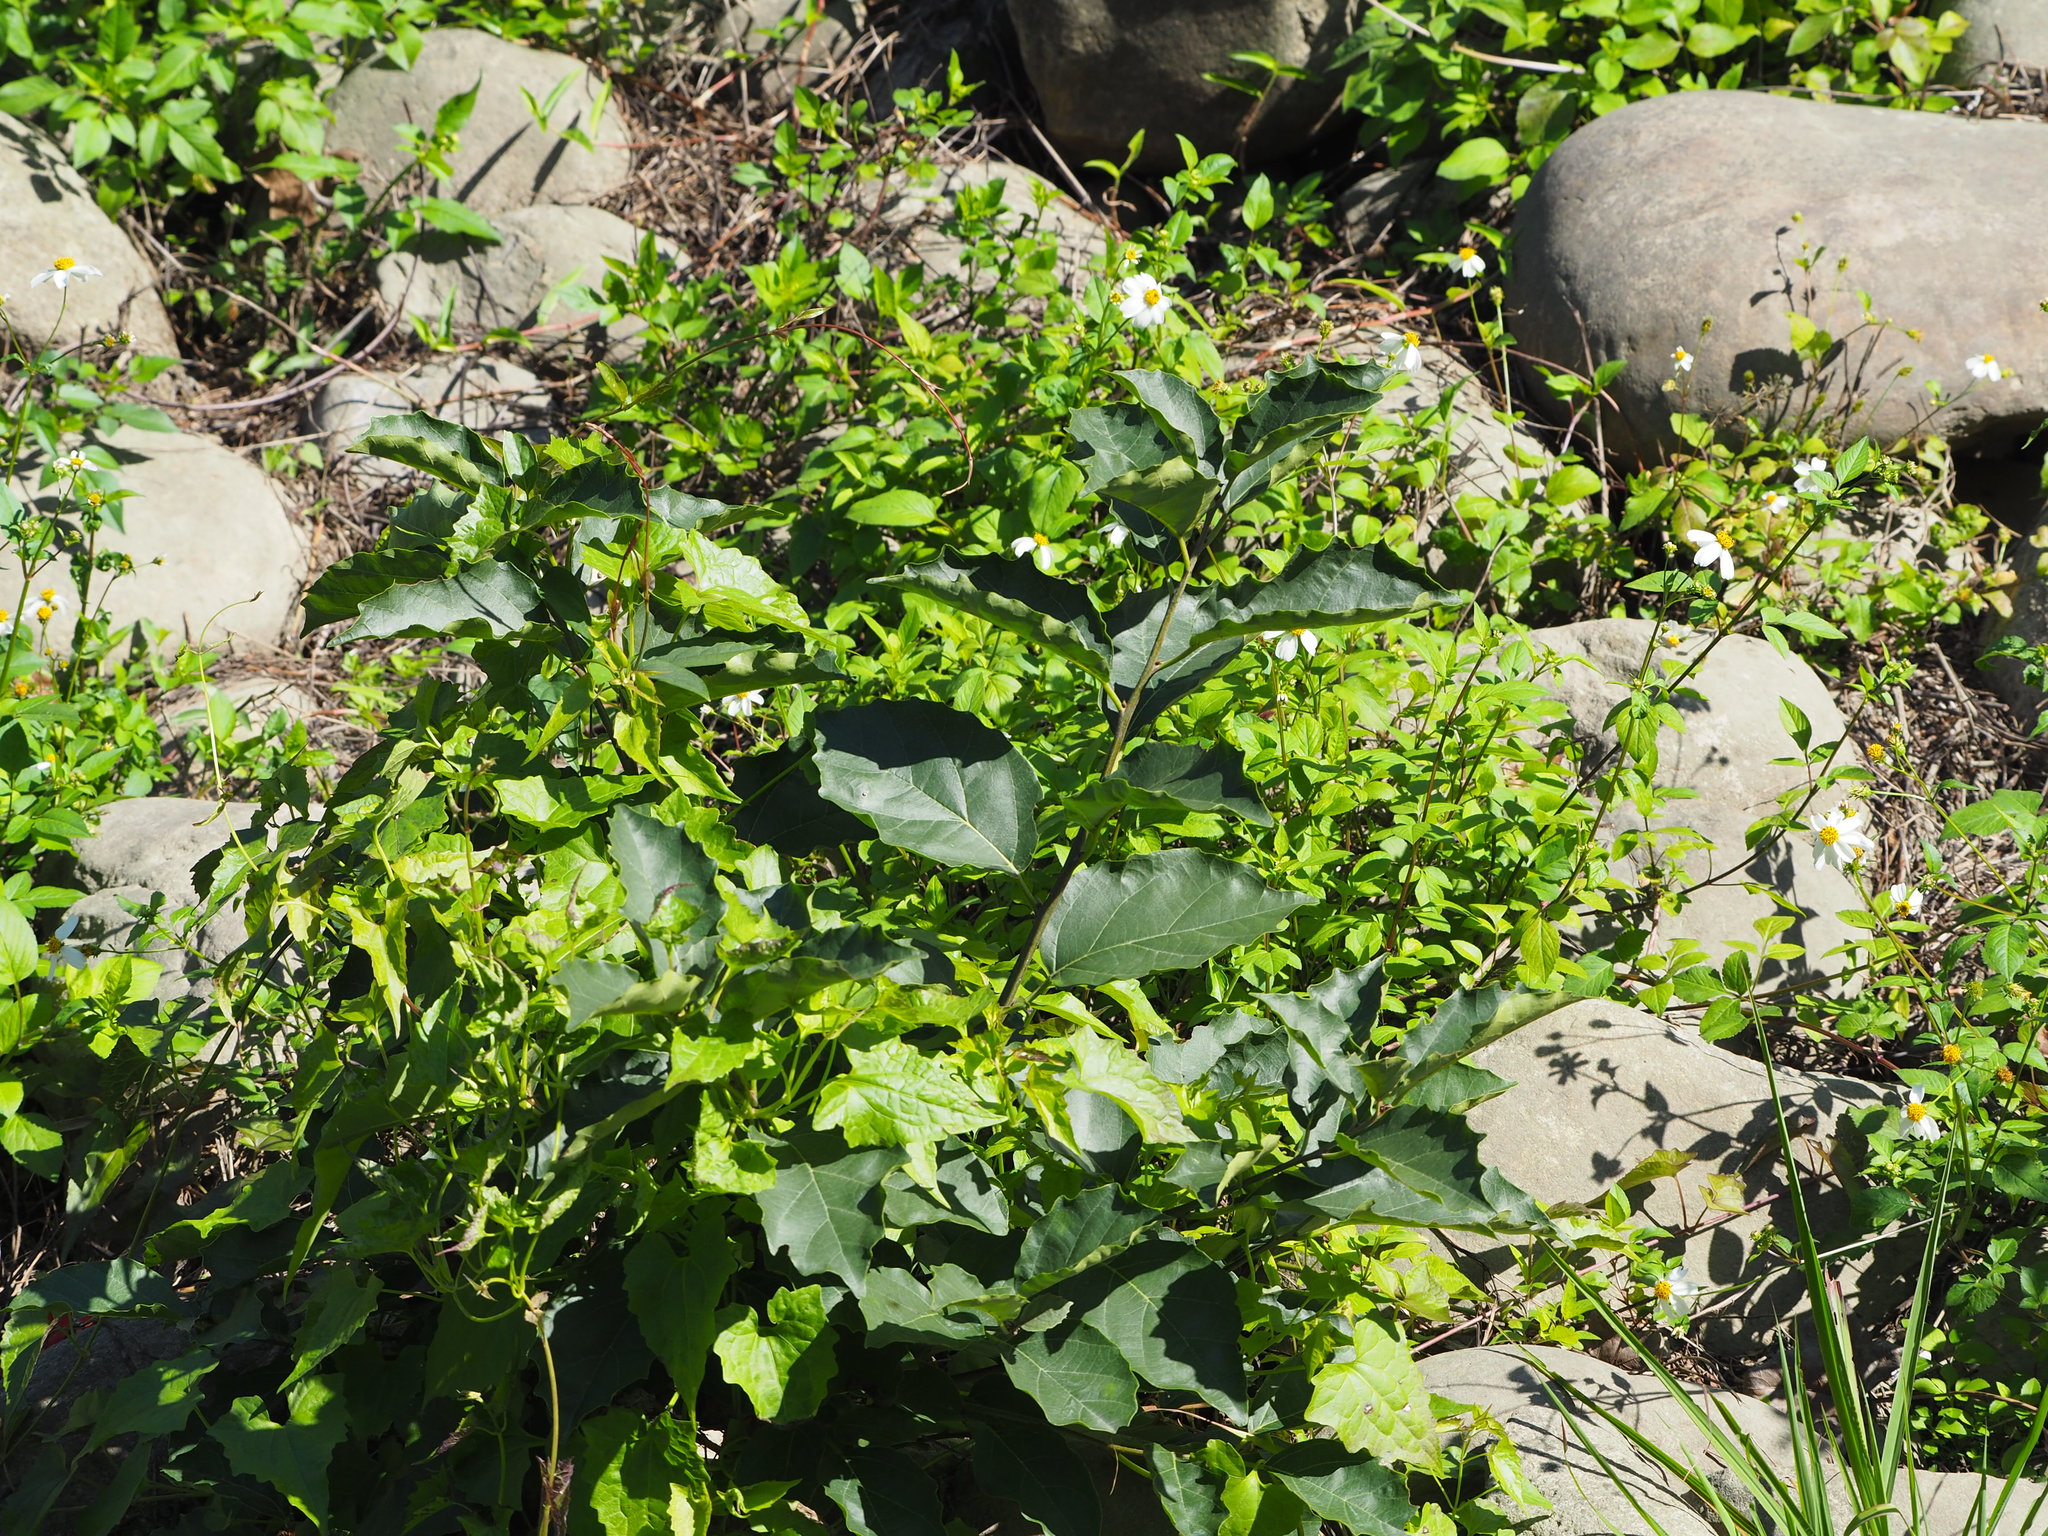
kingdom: Plantae
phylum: Tracheophyta
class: Magnoliopsida
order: Boraginales
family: Cordiaceae
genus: Cordia
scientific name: Cordia dichotoma
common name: Fragrant manjack
